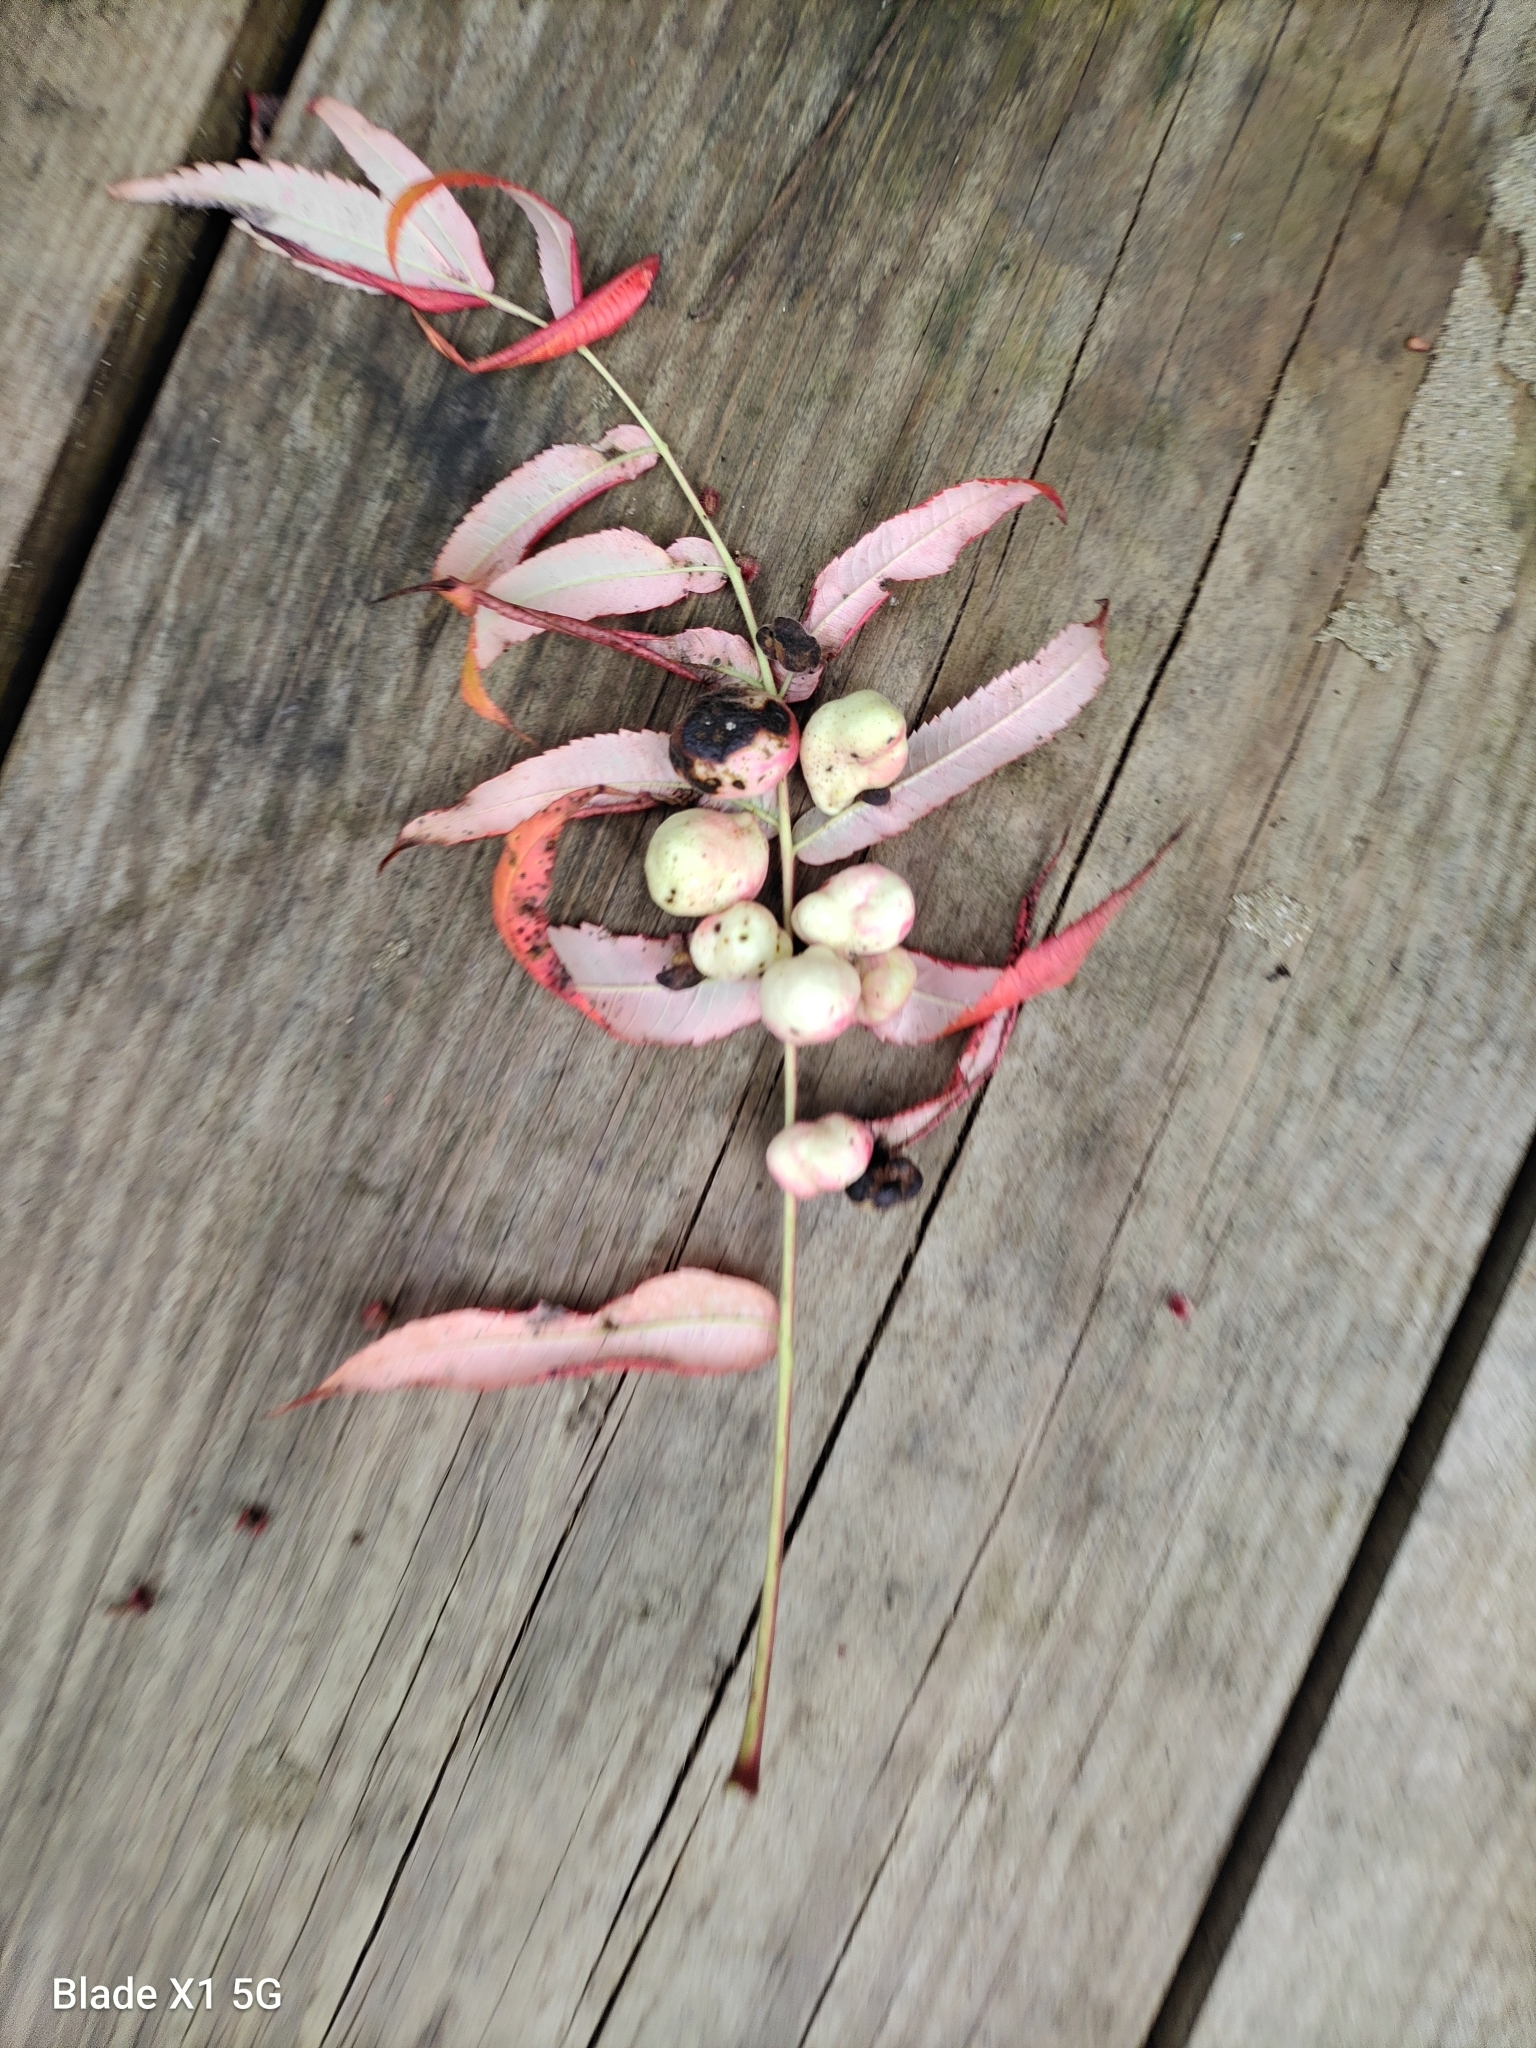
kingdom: Animalia
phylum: Arthropoda
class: Insecta
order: Hemiptera
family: Aphididae
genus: Melaphis
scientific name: Melaphis rhois
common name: Sumac gall aphid
